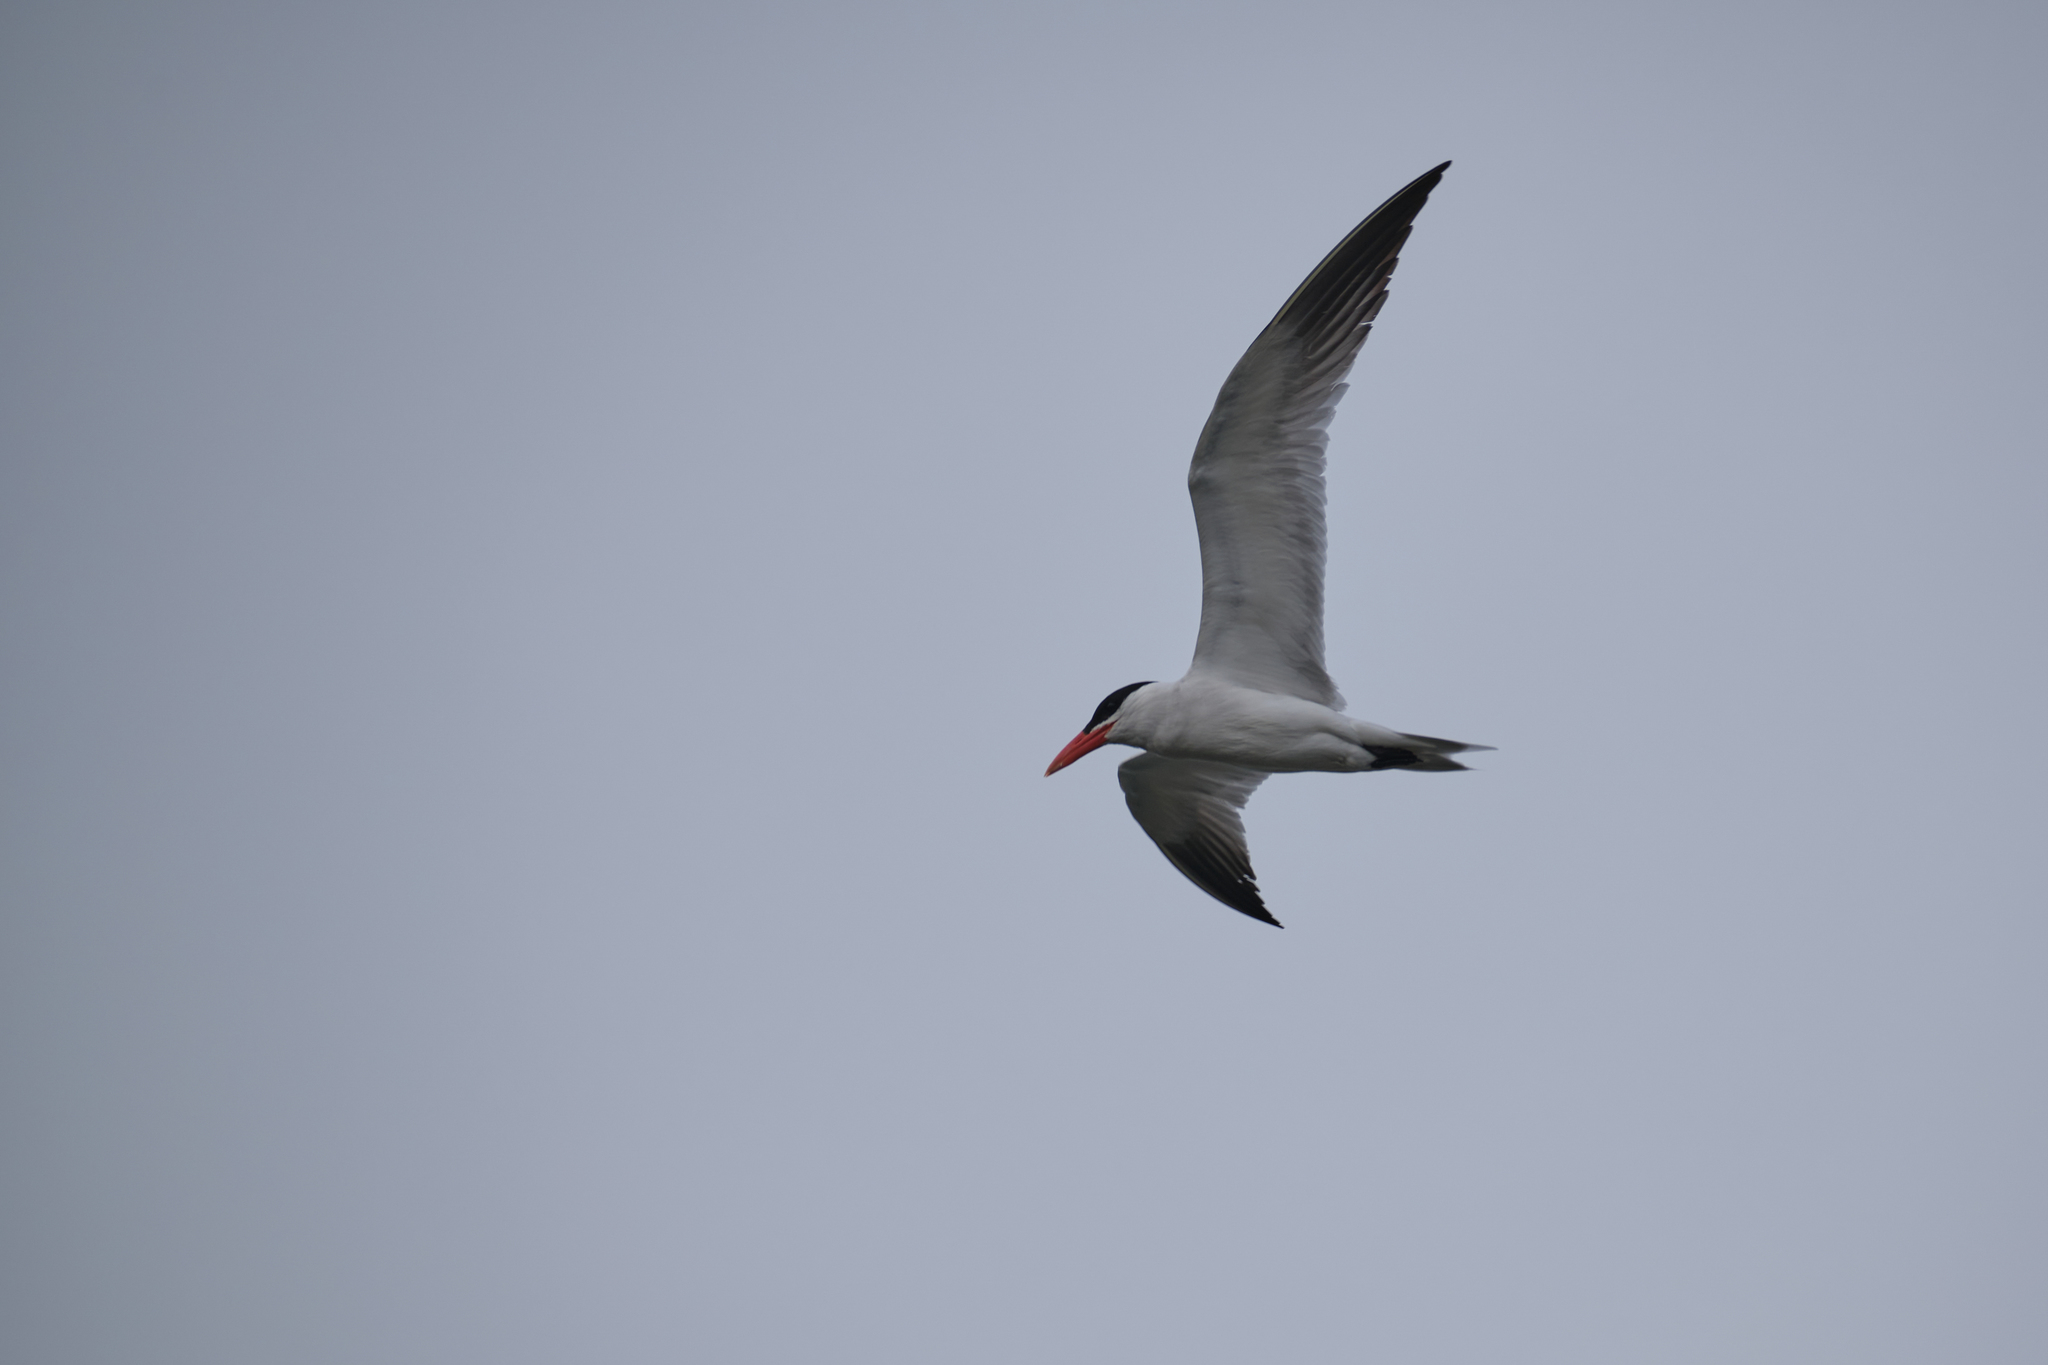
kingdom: Animalia
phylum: Chordata
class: Aves
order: Charadriiformes
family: Laridae
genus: Hydroprogne
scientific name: Hydroprogne caspia
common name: Caspian tern
